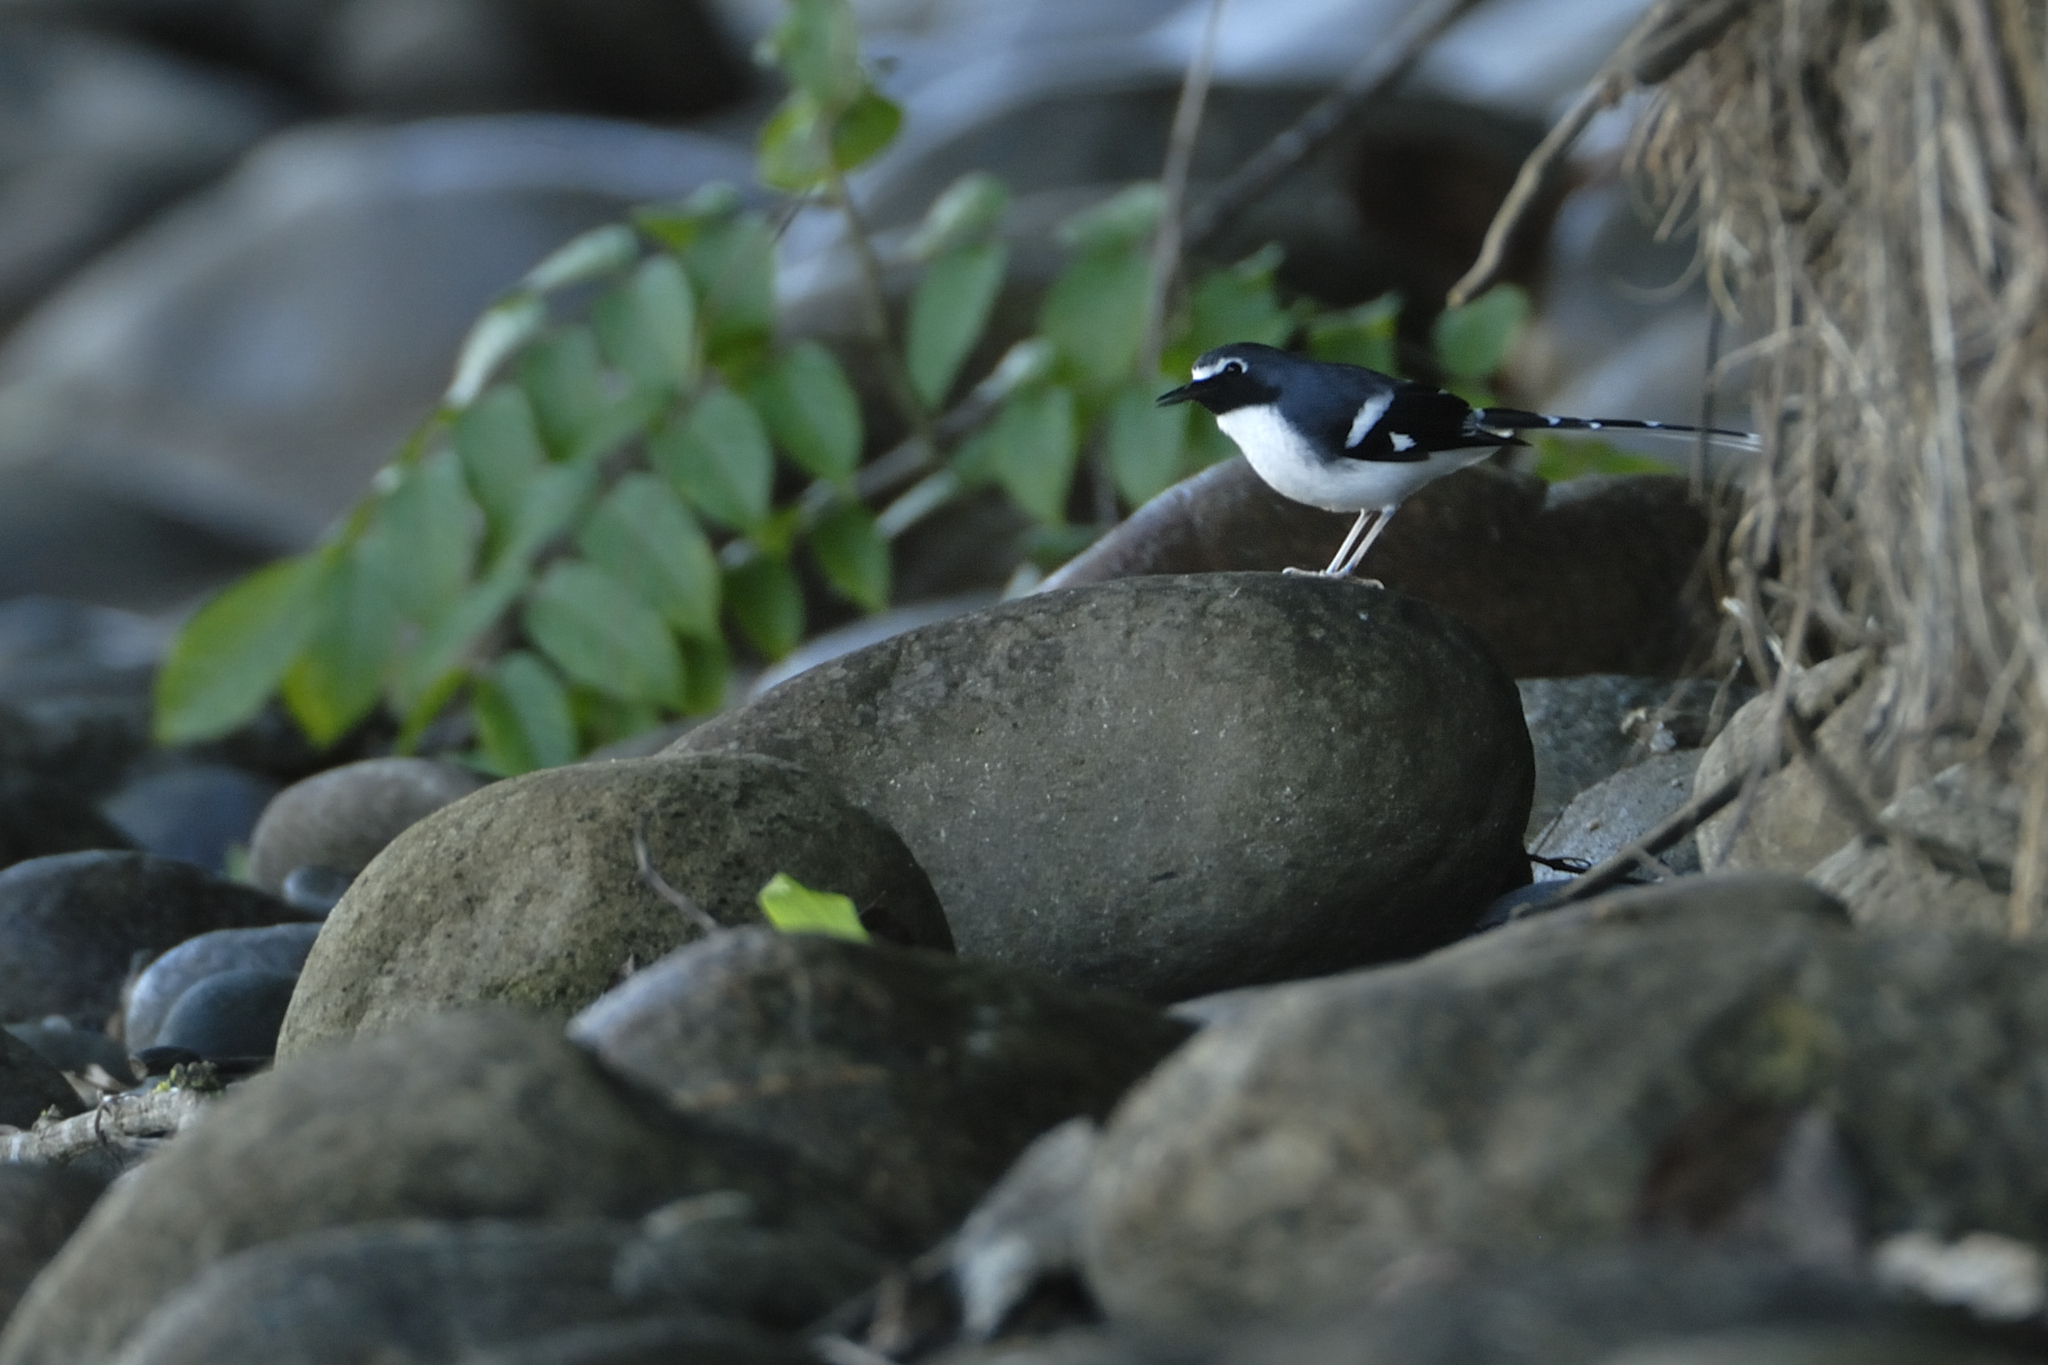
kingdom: Animalia
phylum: Chordata
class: Aves
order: Passeriformes
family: Muscicapidae
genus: Enicurus
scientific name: Enicurus schistaceus
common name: Slaty-backed forktail
